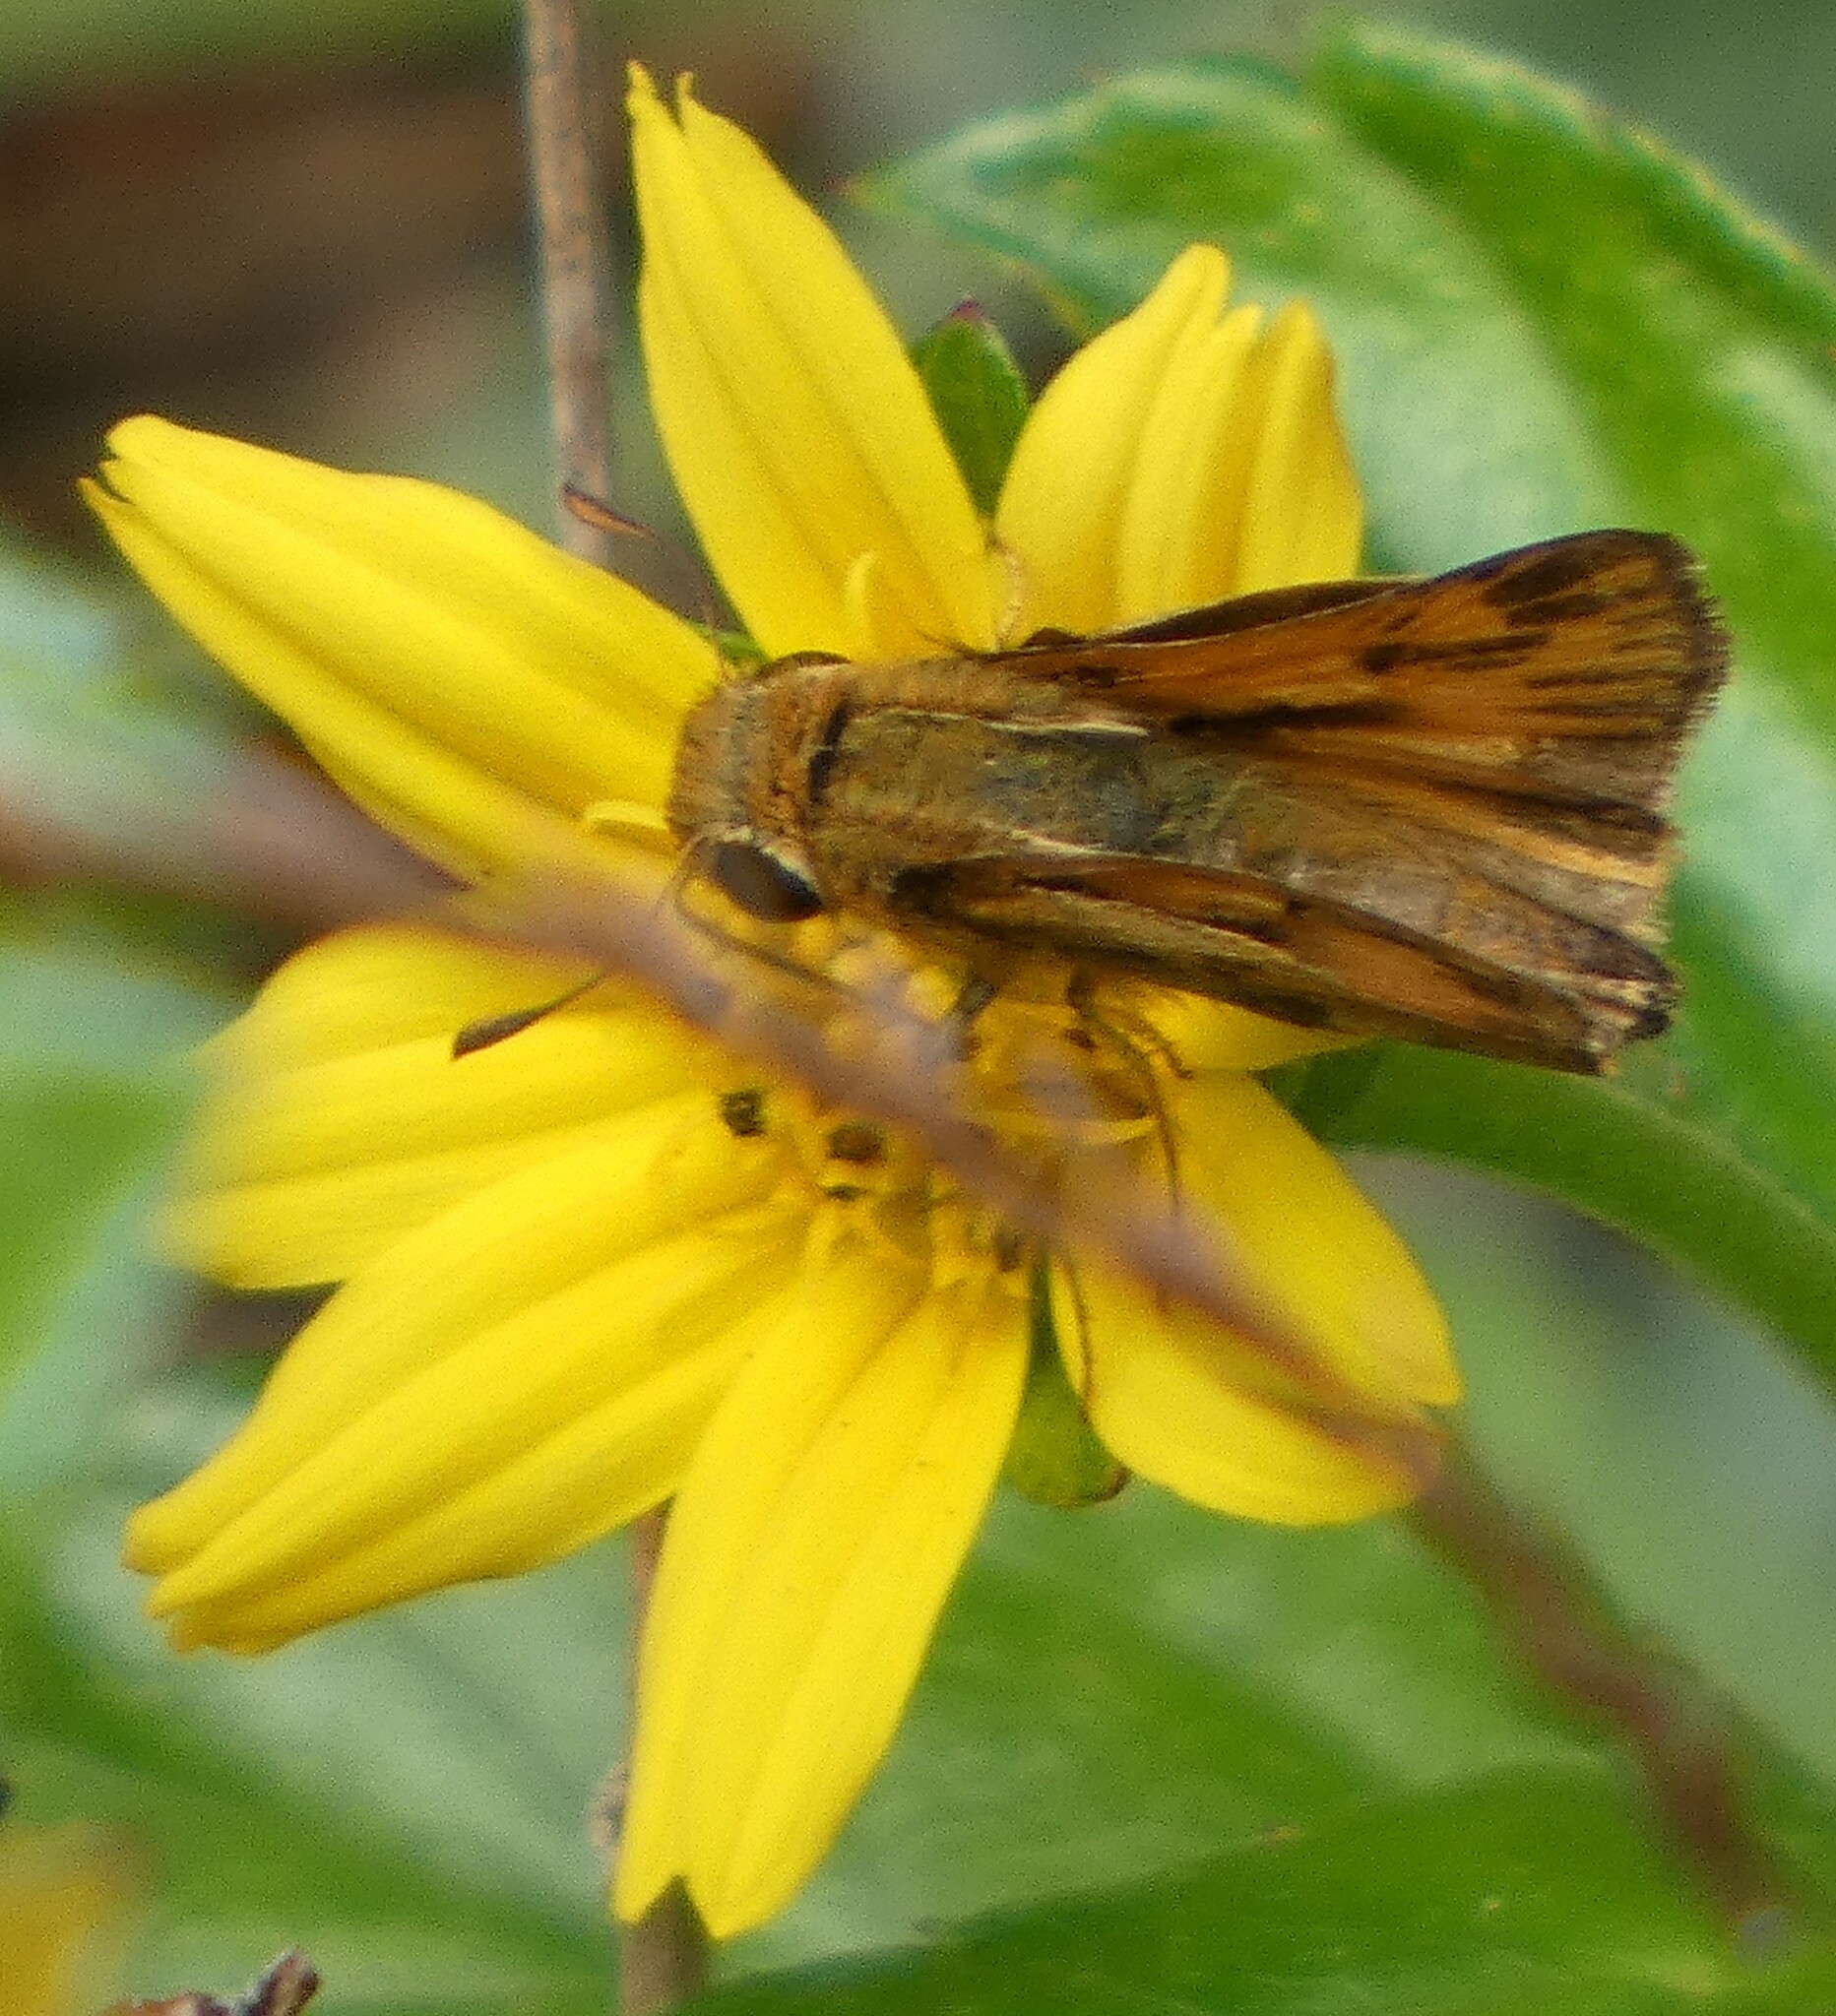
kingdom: Animalia
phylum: Arthropoda
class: Insecta
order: Lepidoptera
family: Hesperiidae
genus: Hylephila
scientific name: Hylephila phyleus
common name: Fiery skipper
